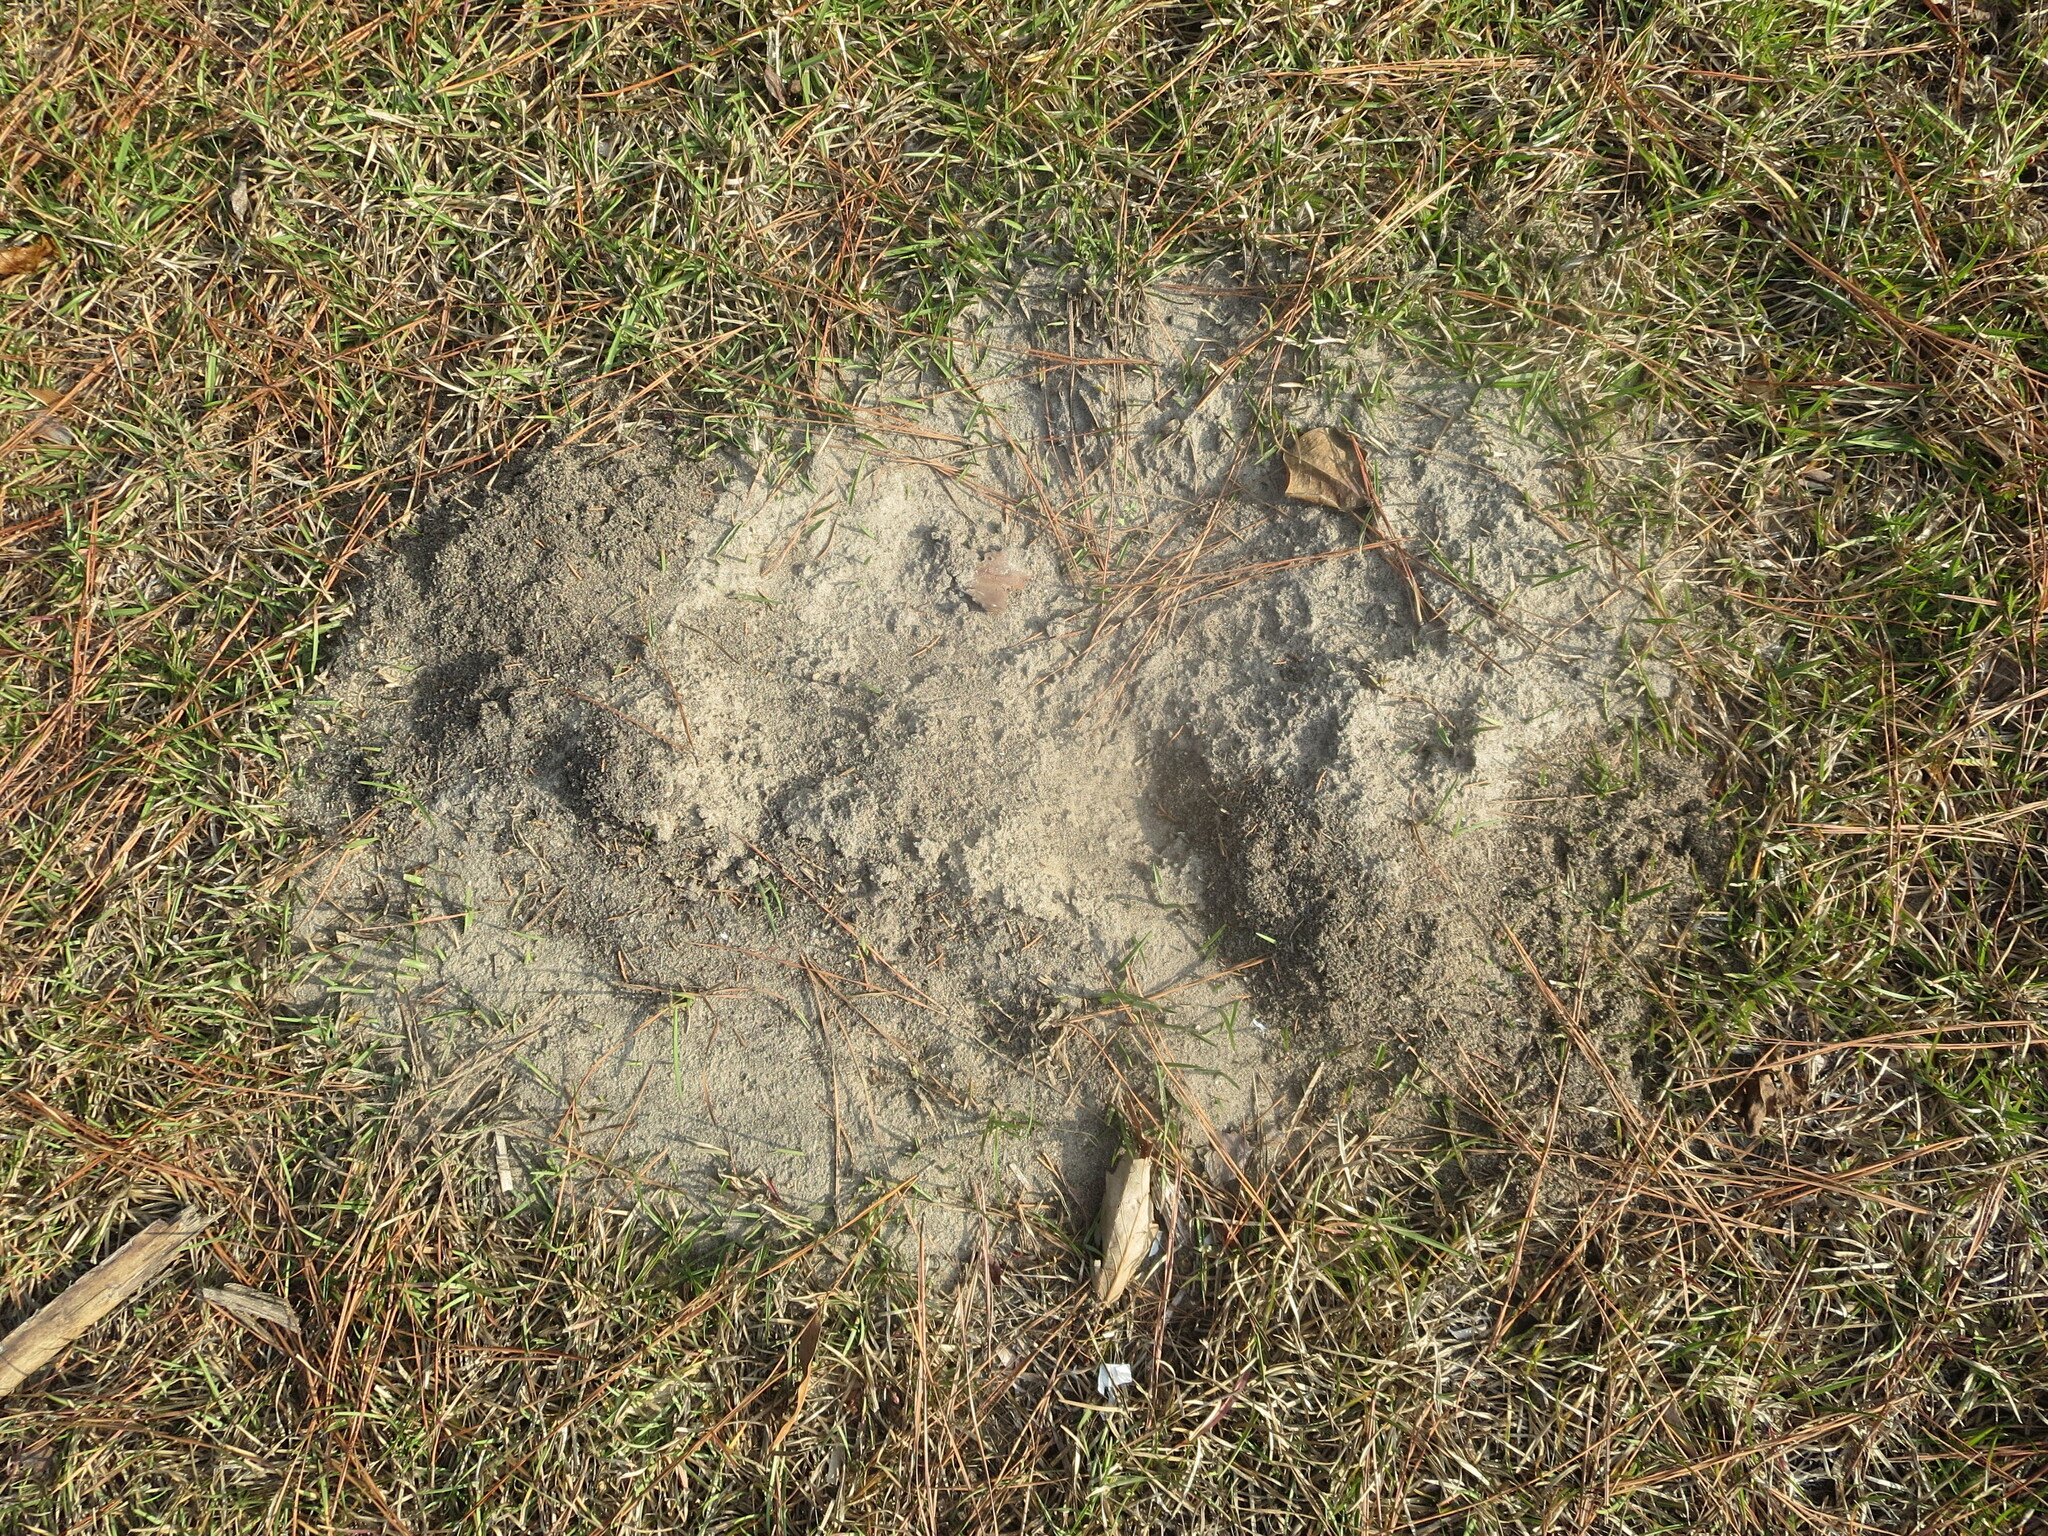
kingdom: Animalia
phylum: Arthropoda
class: Insecta
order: Hymenoptera
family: Formicidae
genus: Solenopsis
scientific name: Solenopsis invicta
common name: Red imported fire ant
